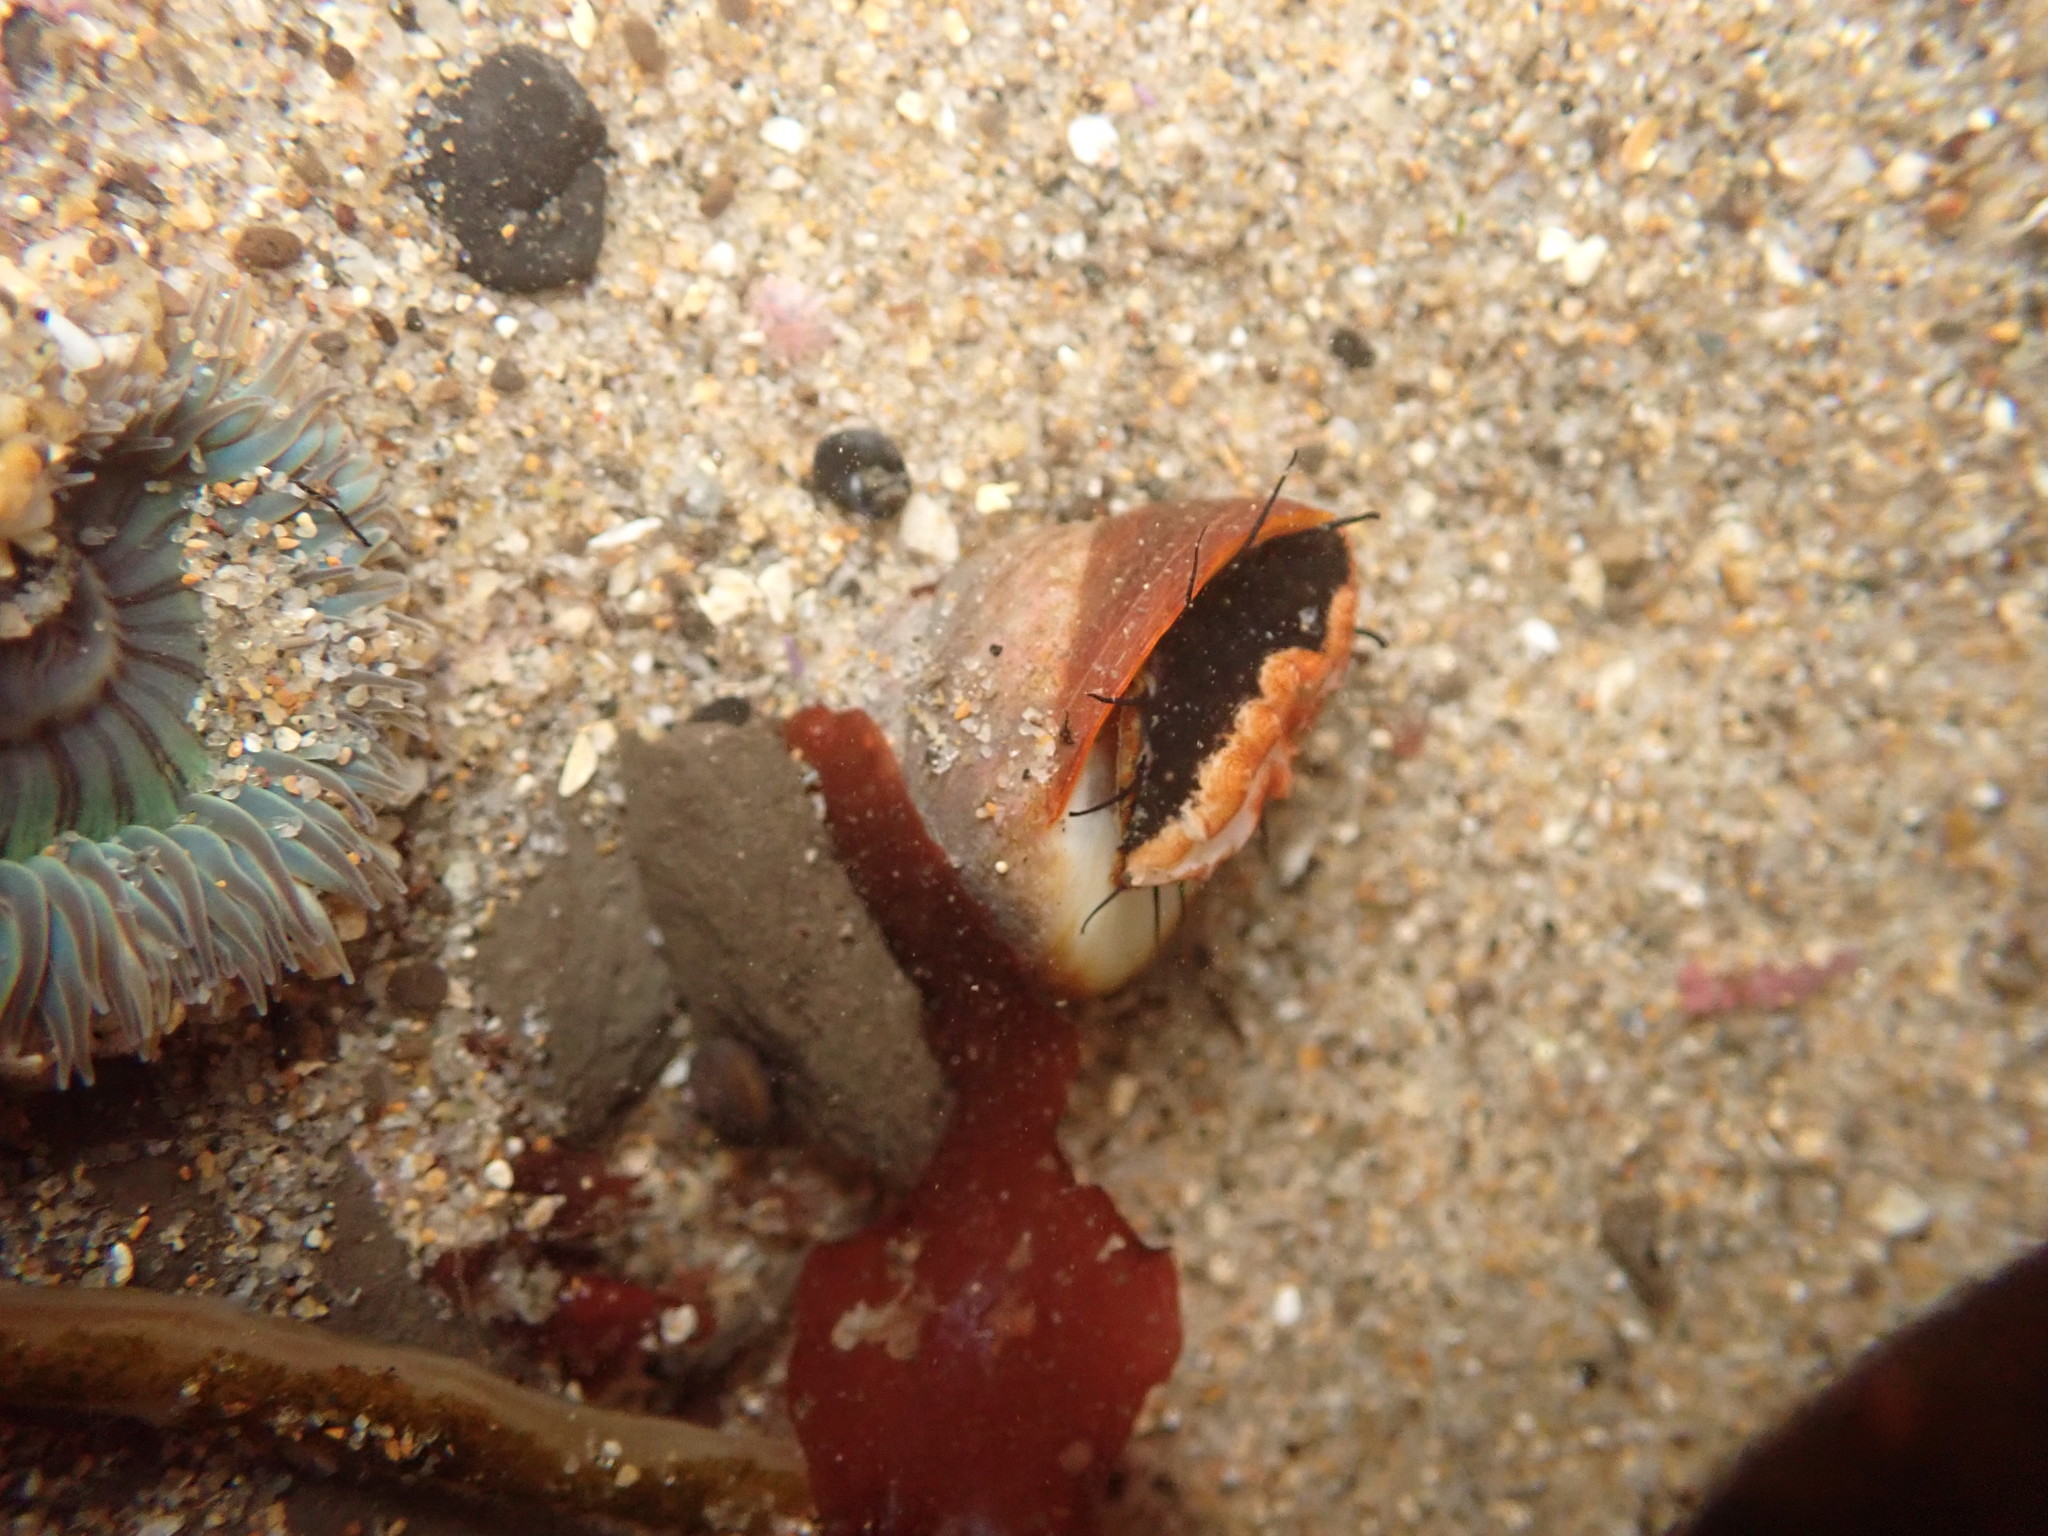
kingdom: Animalia
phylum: Mollusca
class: Gastropoda
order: Trochida
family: Tegulidae
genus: Tegula
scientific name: Tegula brunnea
